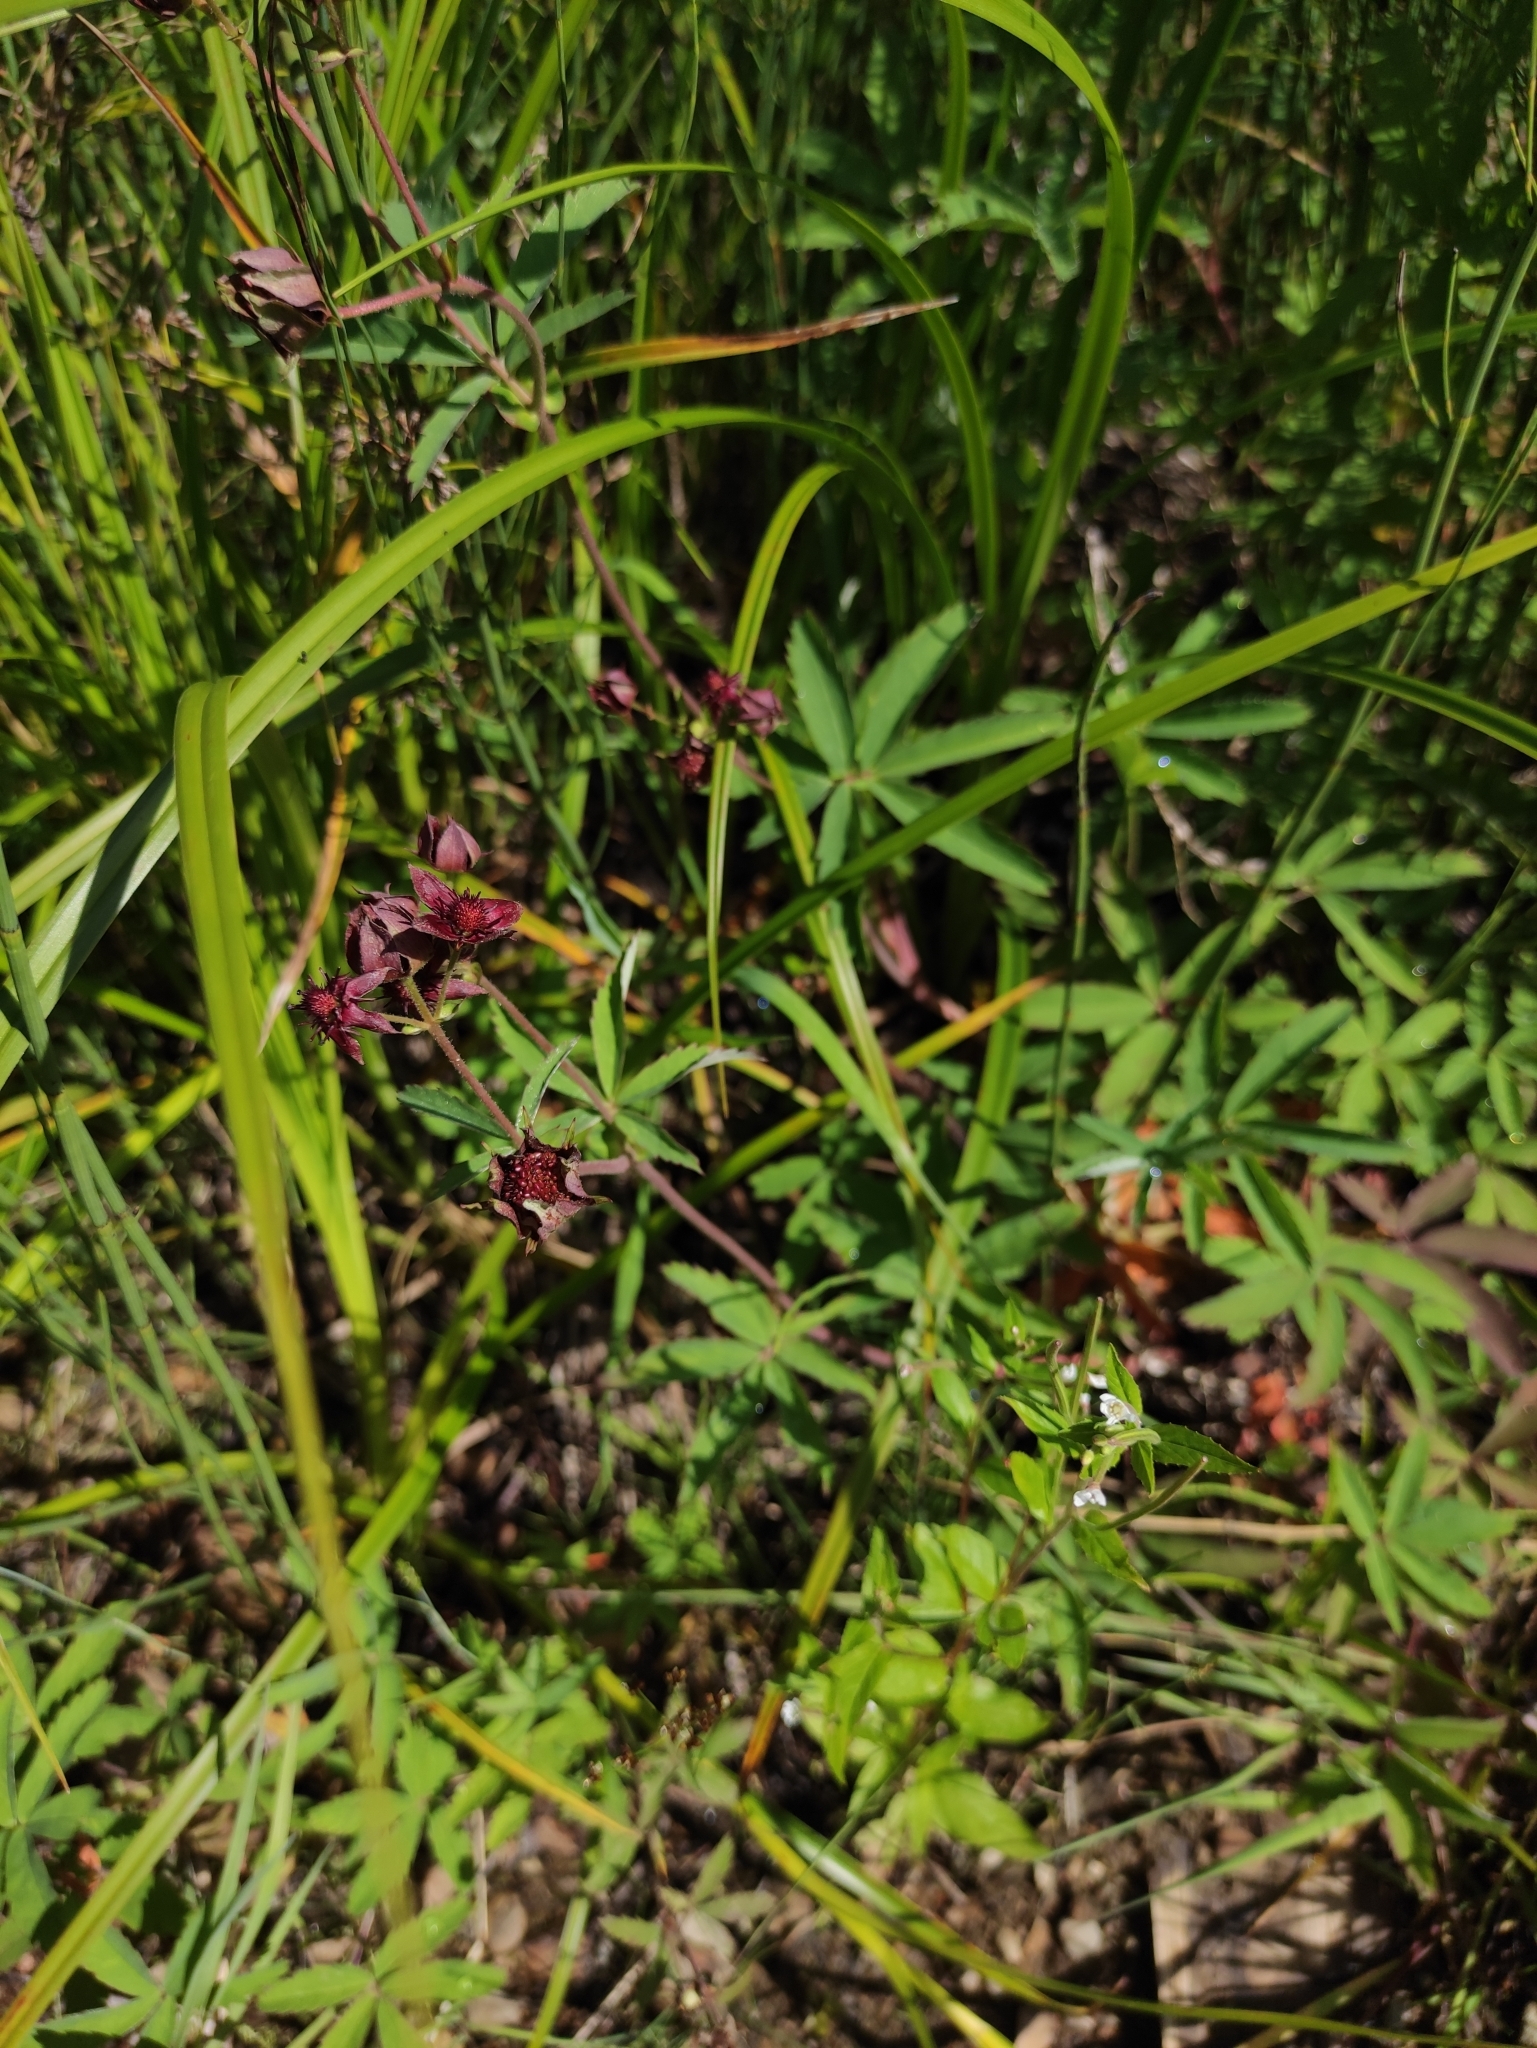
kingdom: Plantae
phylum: Tracheophyta
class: Magnoliopsida
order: Rosales
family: Rosaceae
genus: Comarum
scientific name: Comarum palustre
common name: Marsh cinquefoil
